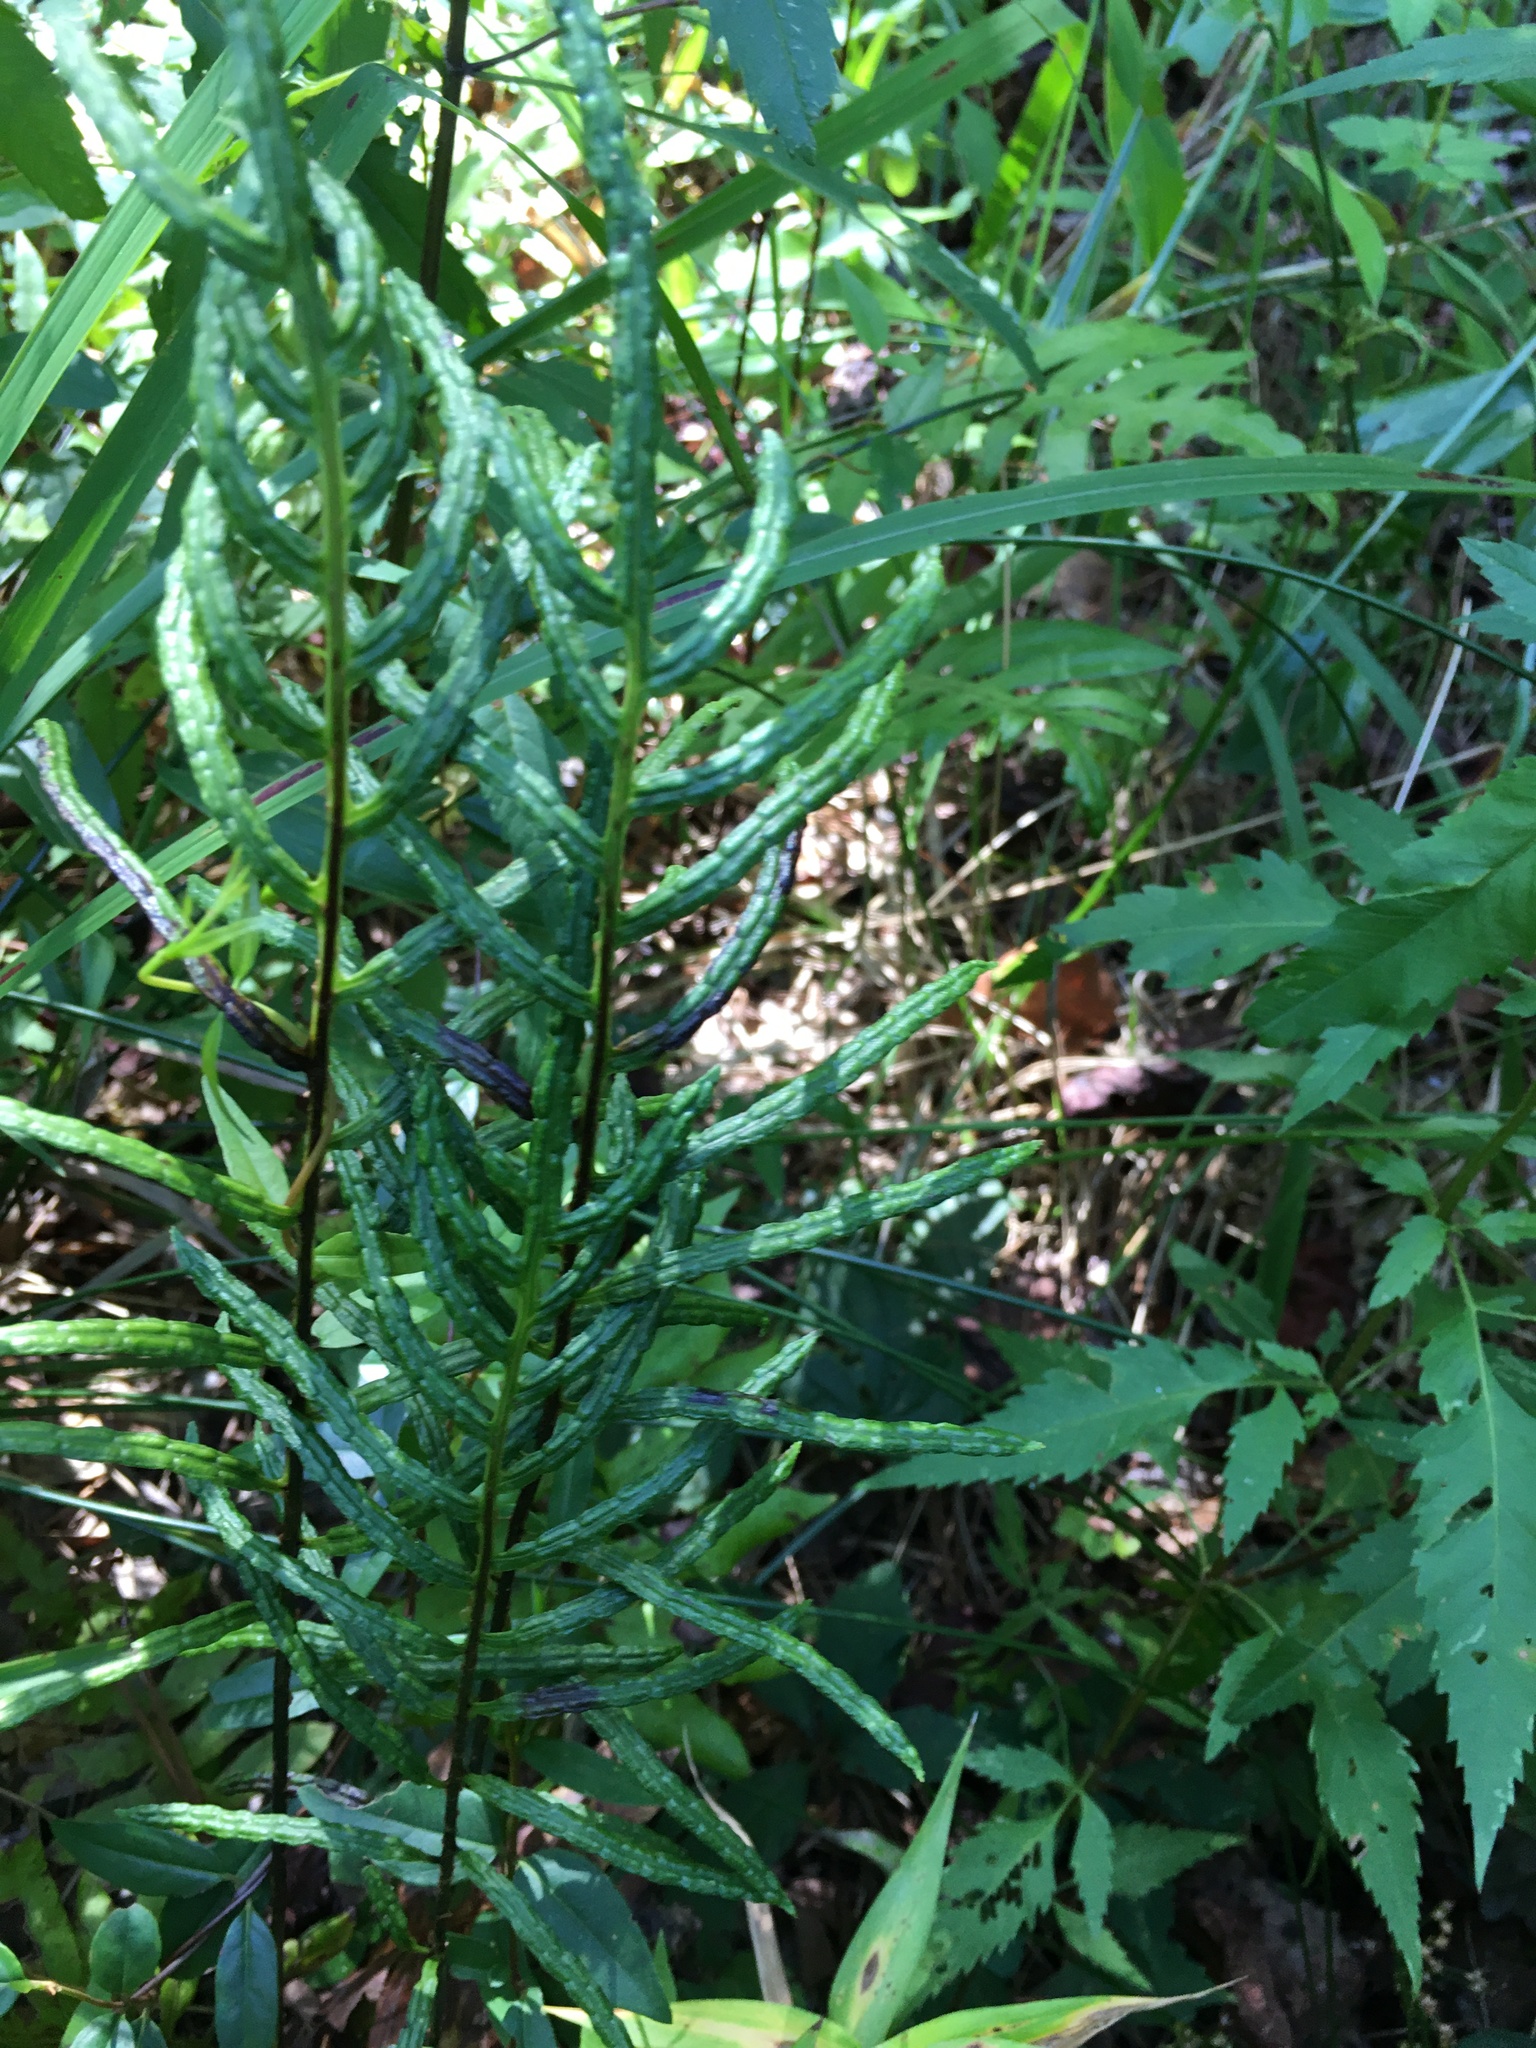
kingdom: Plantae
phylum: Tracheophyta
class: Polypodiopsida
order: Polypodiales
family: Blechnaceae
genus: Lorinseria
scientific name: Lorinseria areolata
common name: Dwarf chain fern
